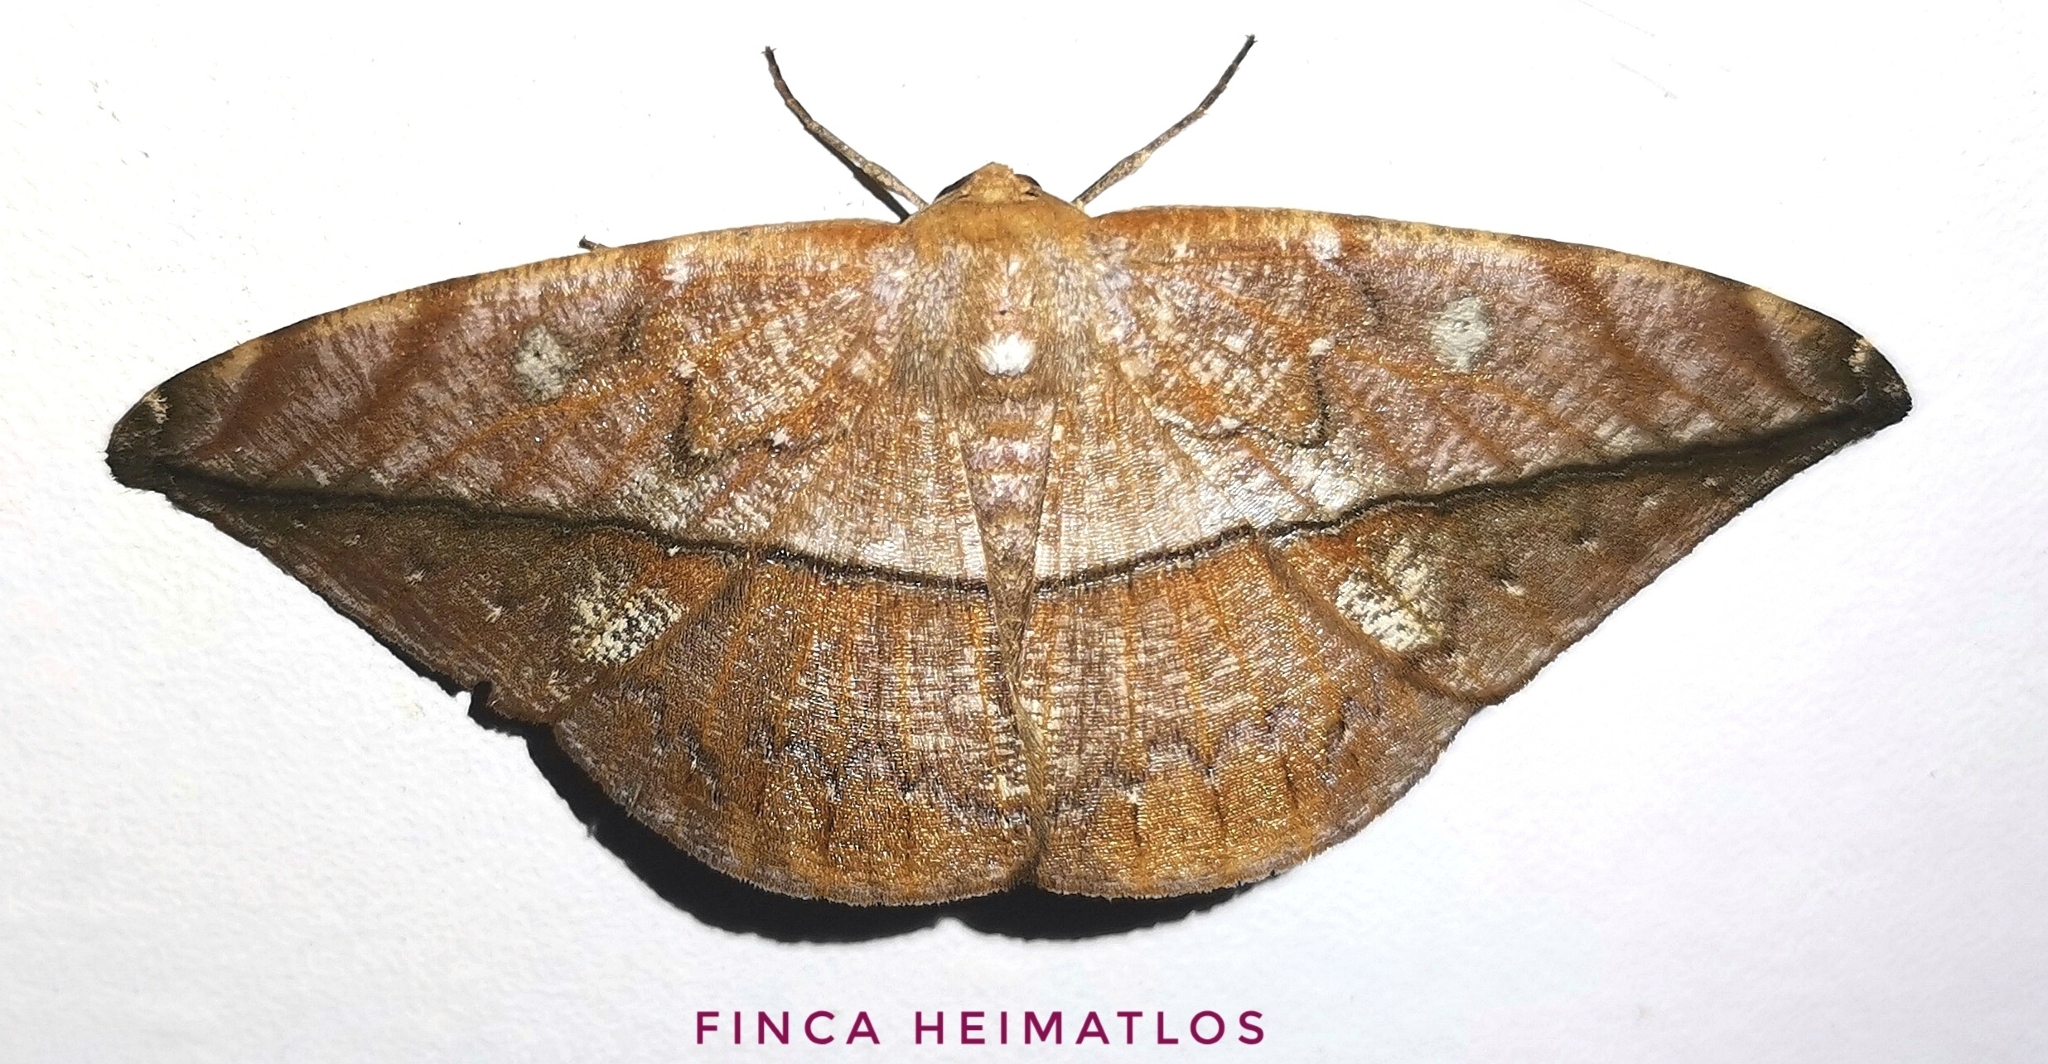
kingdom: Animalia
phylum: Arthropoda
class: Insecta
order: Lepidoptera
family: Geometridae
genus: Oxydia
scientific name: Oxydia translinquens
